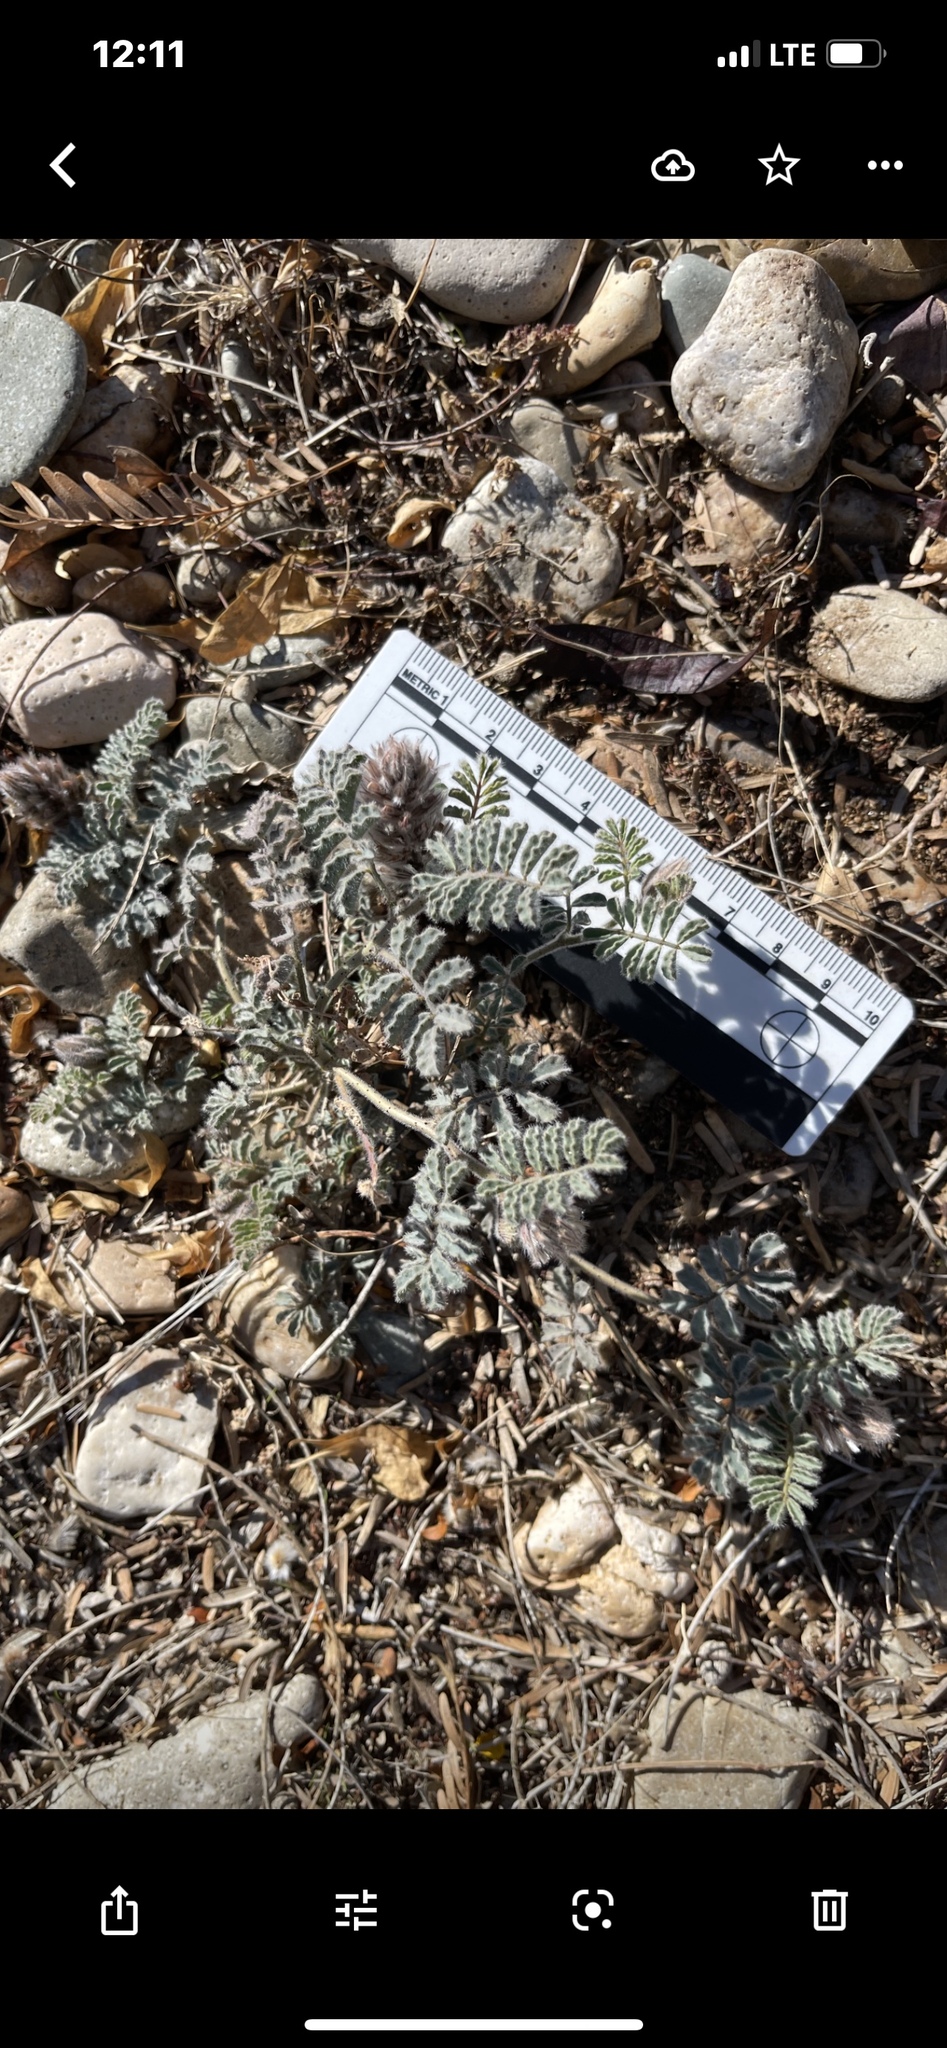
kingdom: Plantae
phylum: Tracheophyta
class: Magnoliopsida
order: Fabales
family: Fabaceae
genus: Dalea
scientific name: Dalea mollissima
